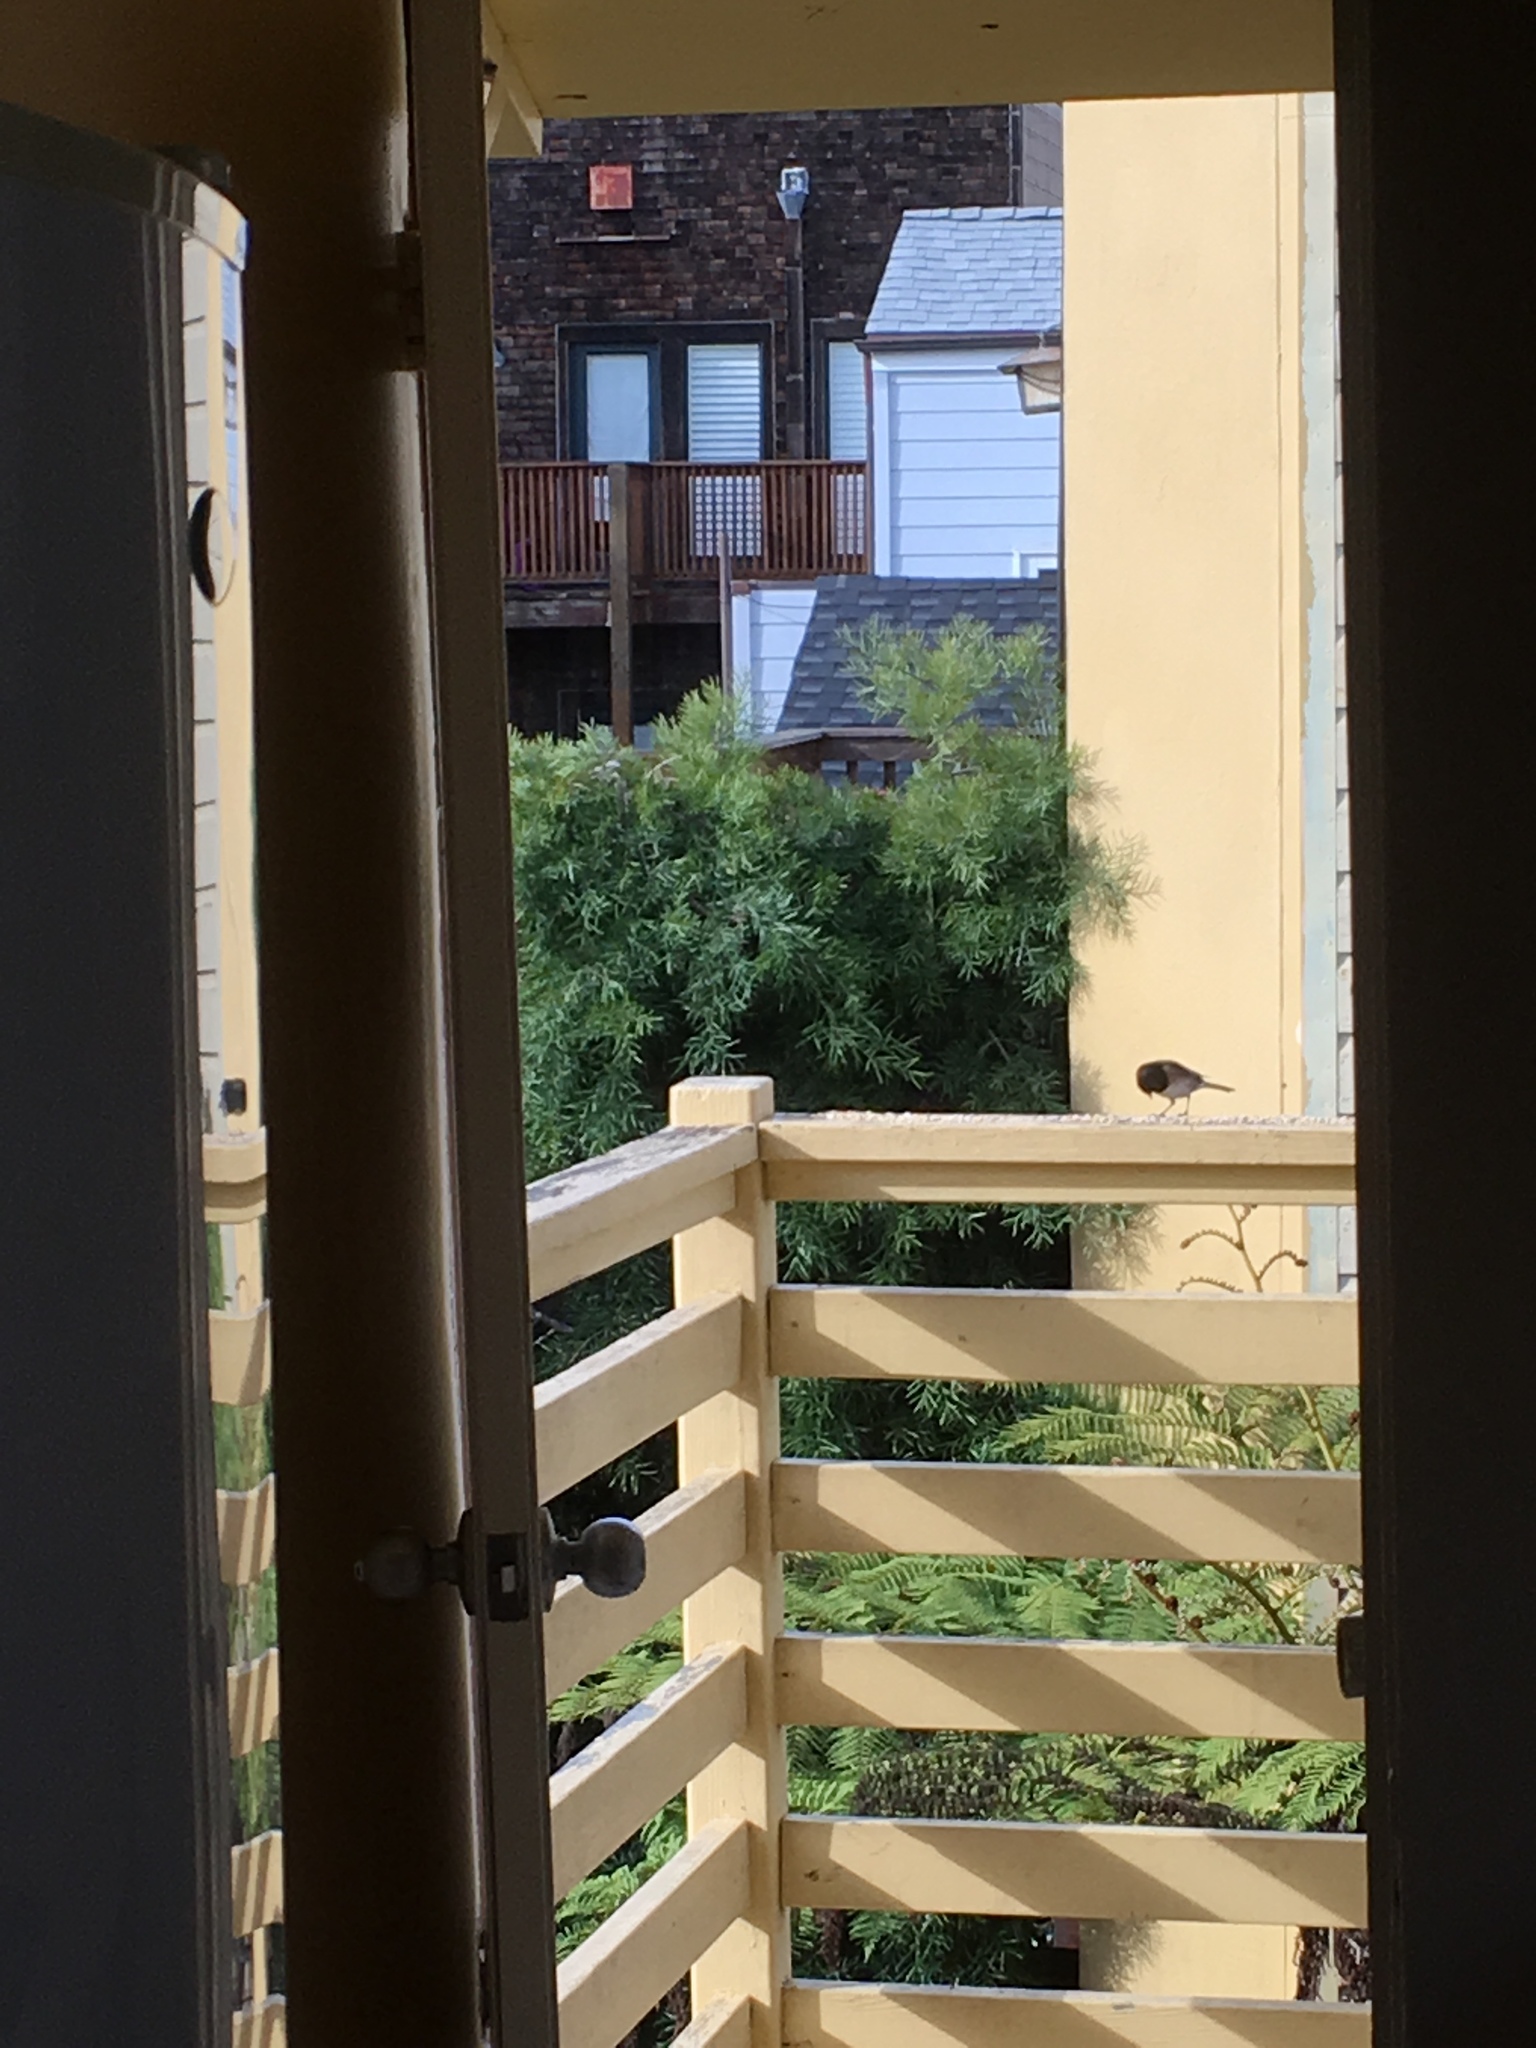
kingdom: Animalia
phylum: Chordata
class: Aves
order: Passeriformes
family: Passerellidae
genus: Junco
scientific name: Junco hyemalis
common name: Dark-eyed junco
